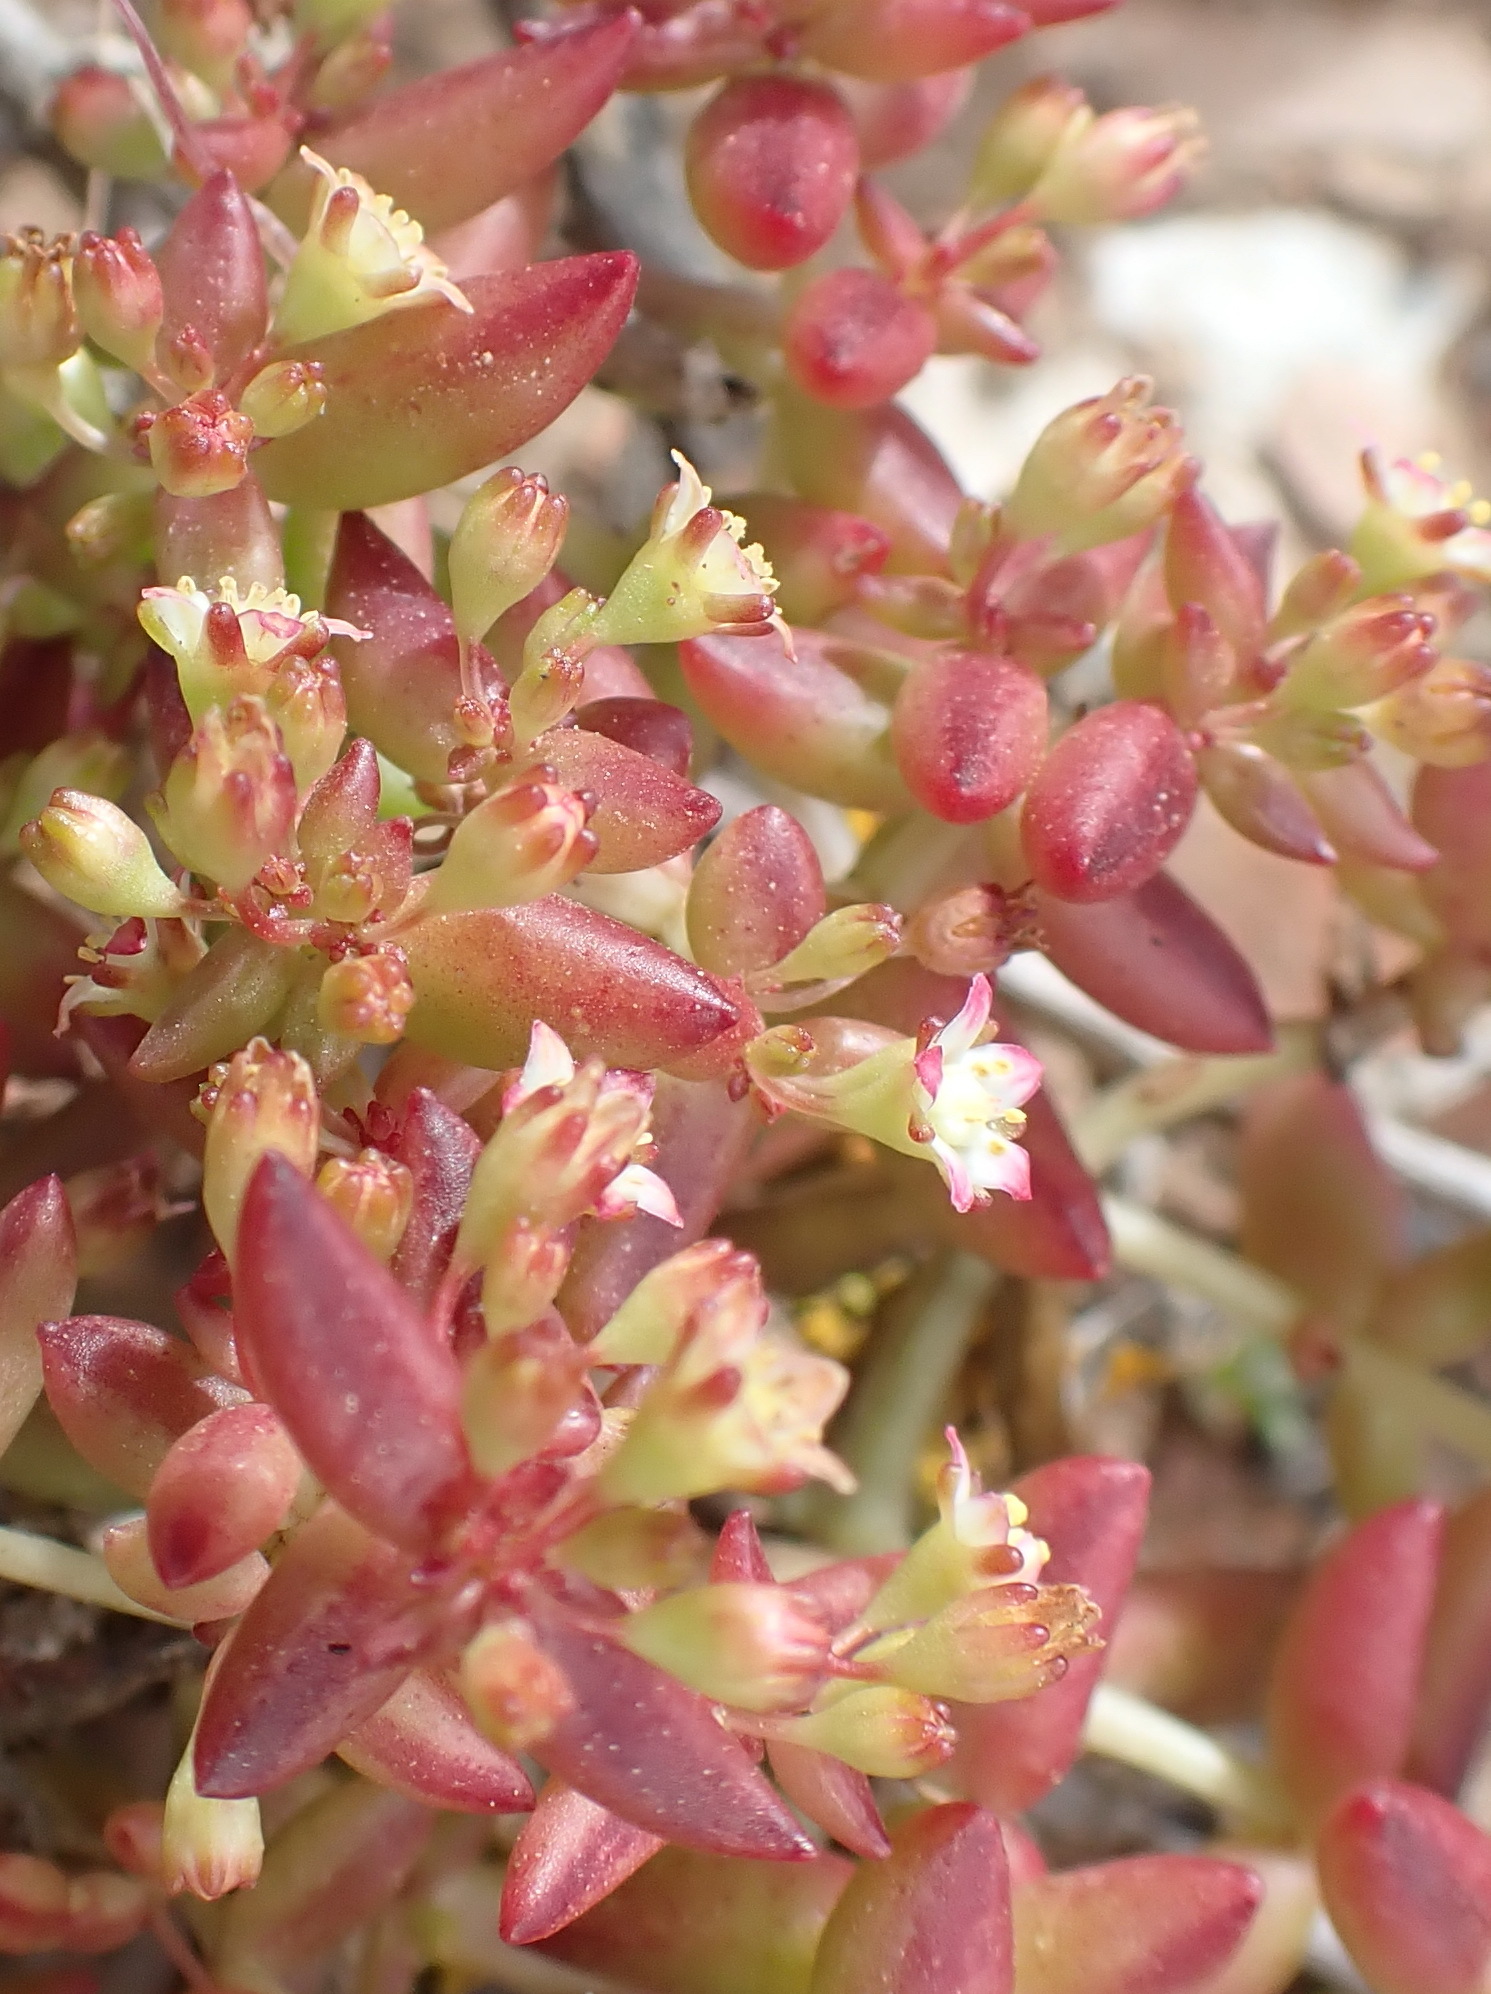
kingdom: Plantae
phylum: Tracheophyta
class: Magnoliopsida
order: Saxifragales
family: Crassulaceae
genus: Crassula
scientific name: Crassula expansa
